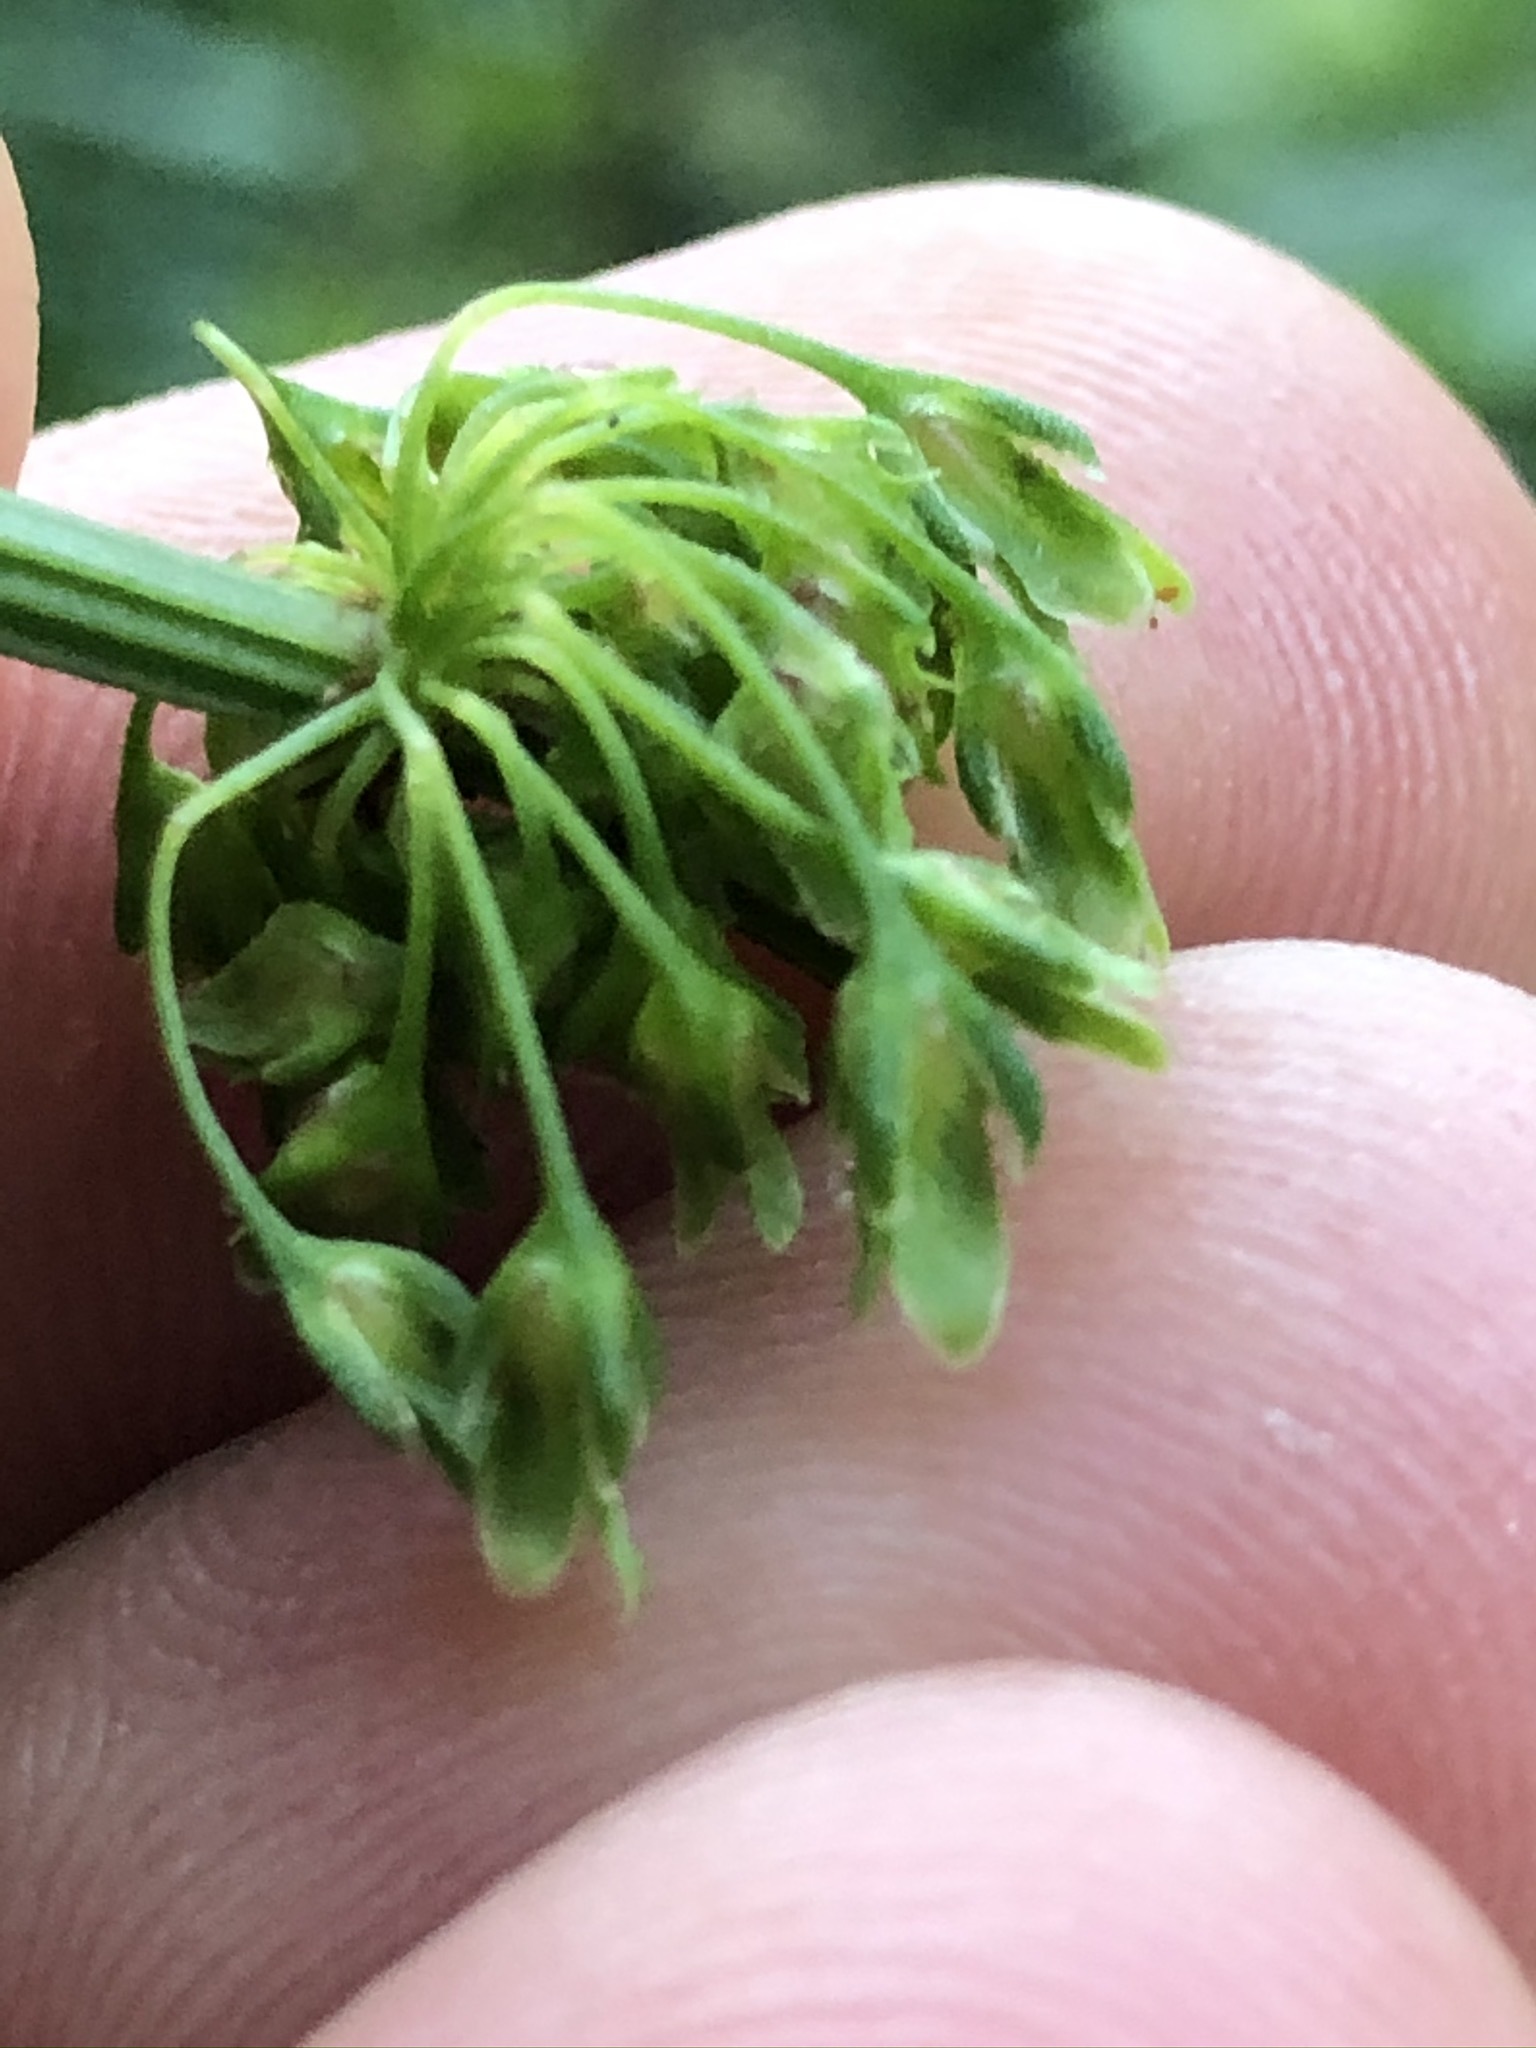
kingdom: Plantae
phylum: Tracheophyta
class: Magnoliopsida
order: Caryophyllales
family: Polygonaceae
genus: Rumex
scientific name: Rumex crispus
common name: Curled dock
